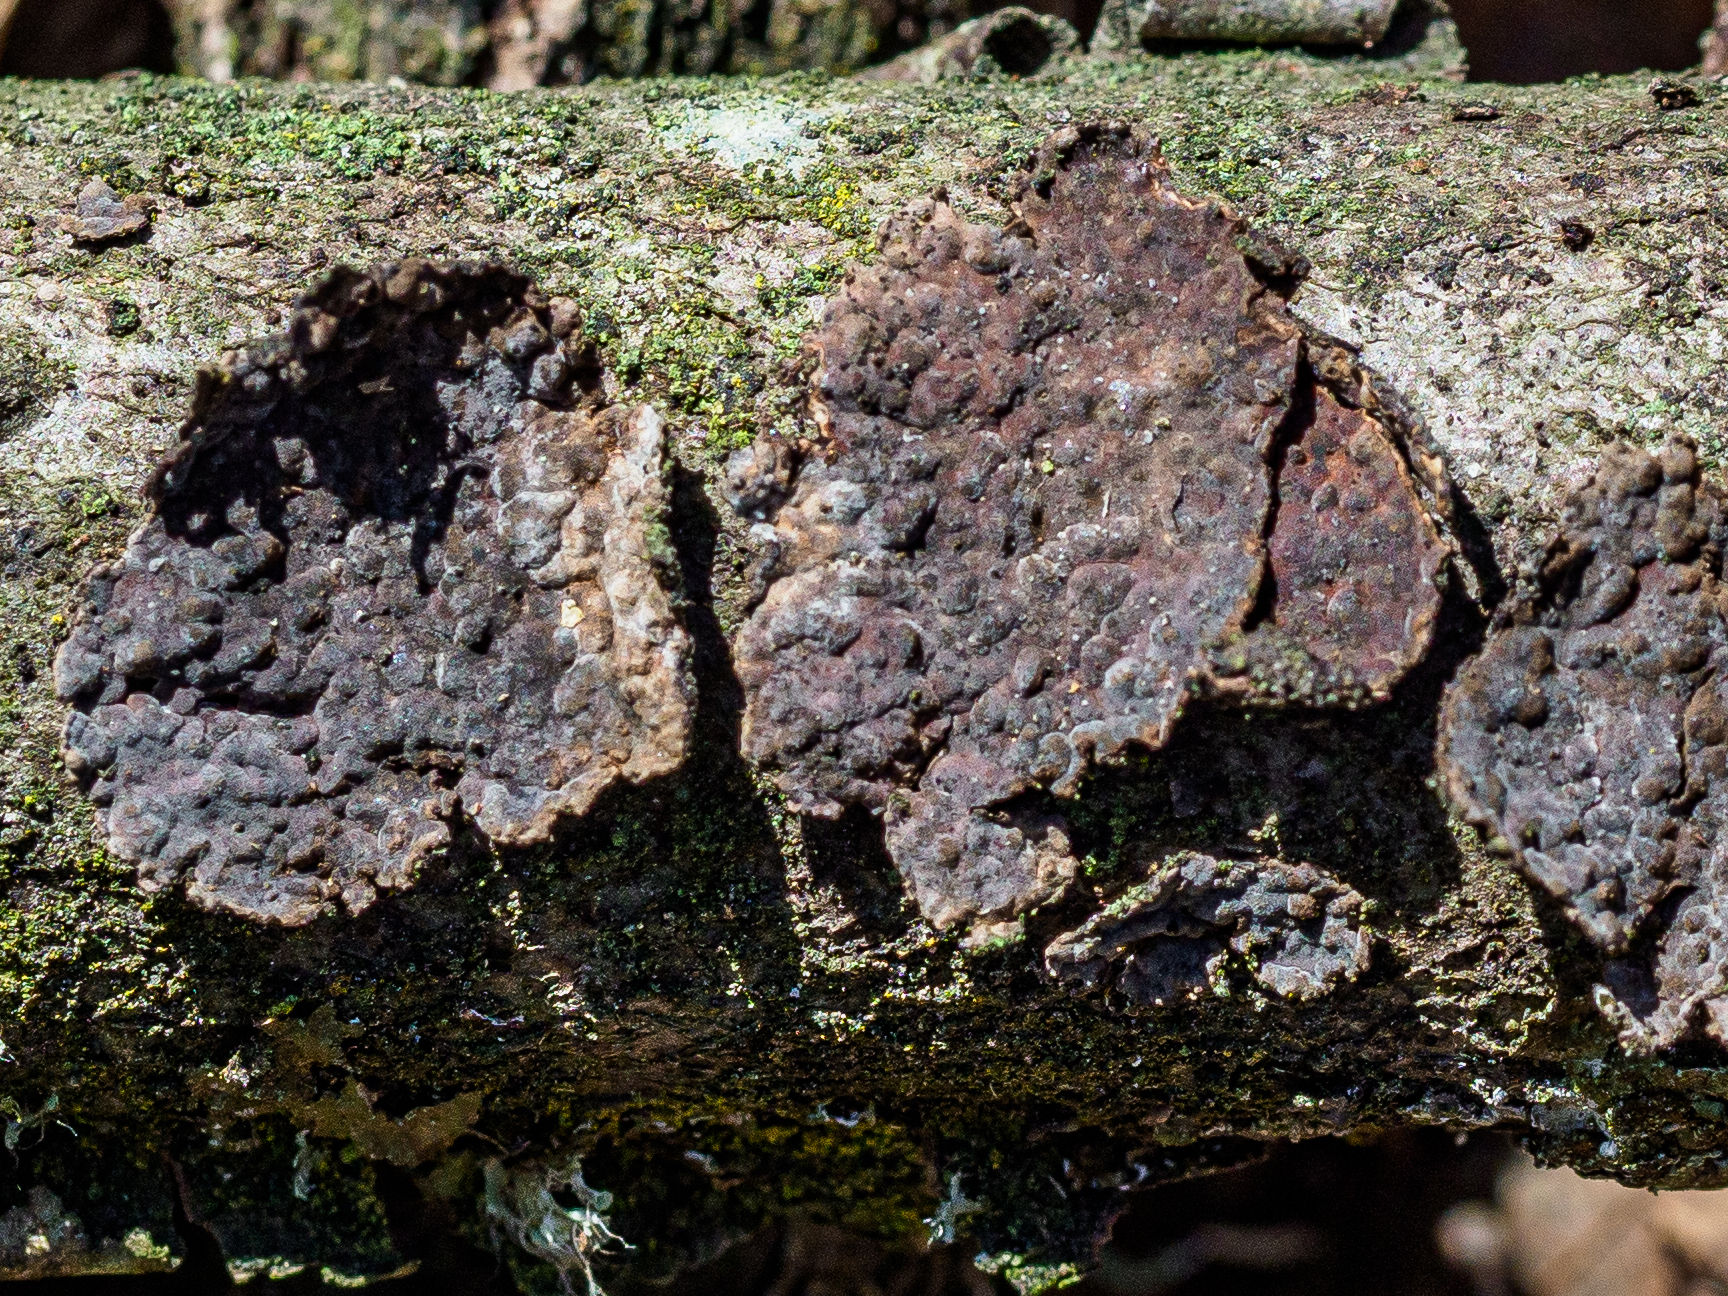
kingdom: Fungi
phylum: Basidiomycota
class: Agaricomycetes
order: Russulales
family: Peniophoraceae
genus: Peniophora
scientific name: Peniophora quercina
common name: Oak crust
